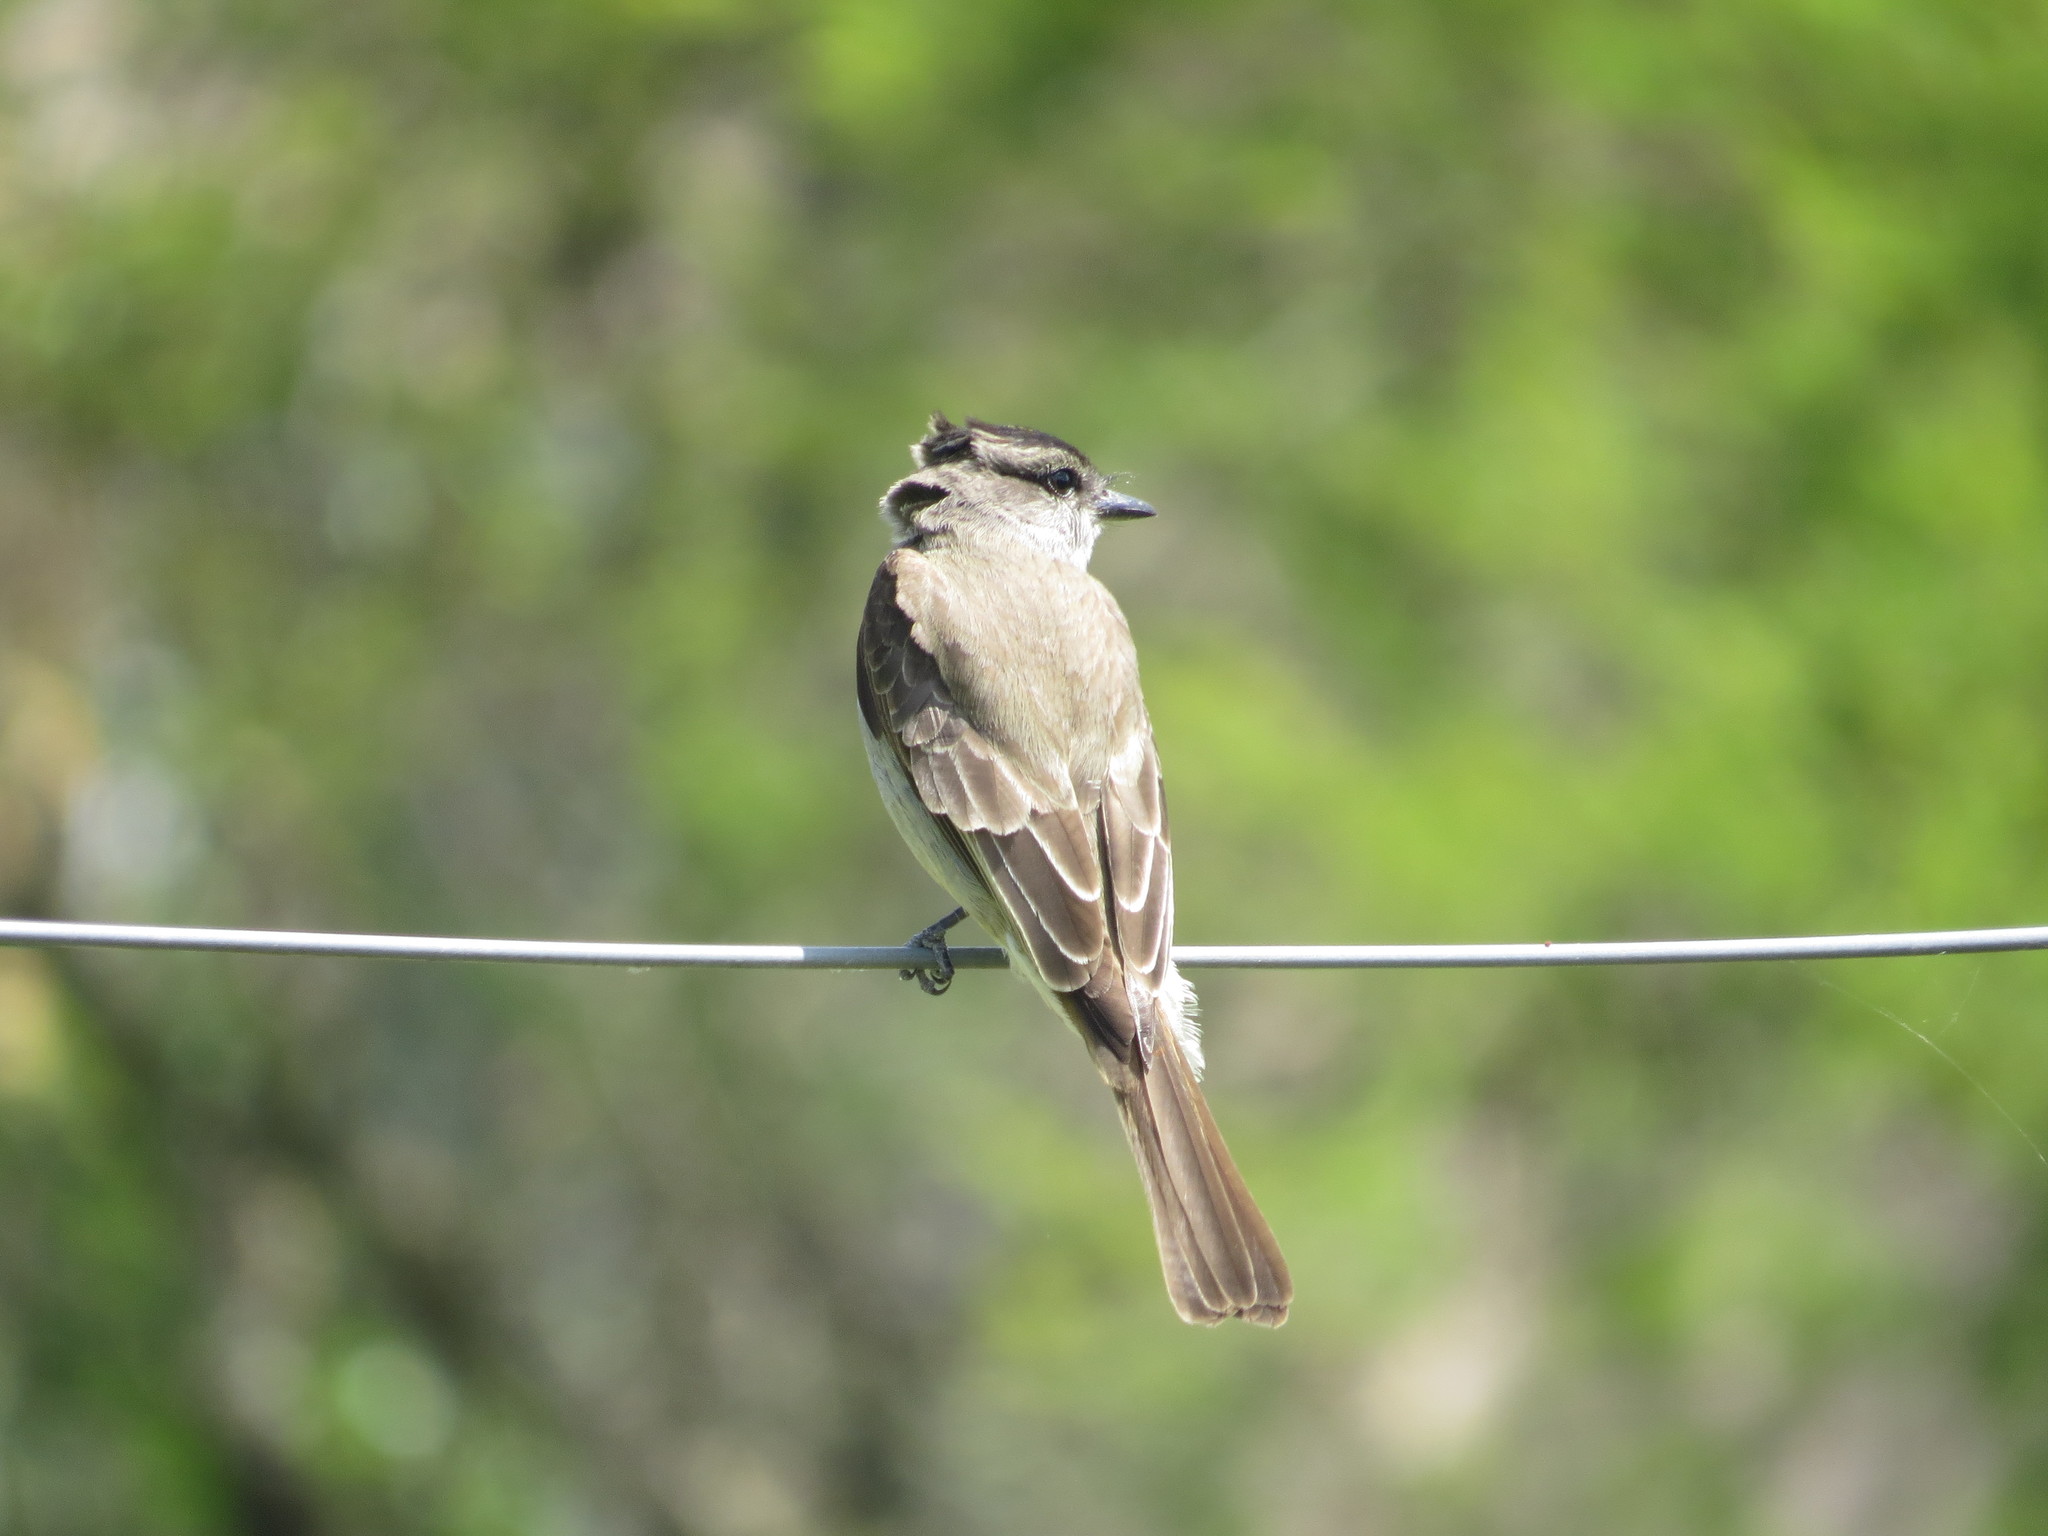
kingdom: Animalia
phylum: Chordata
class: Aves
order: Passeriformes
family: Tyrannidae
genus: Empidonomus
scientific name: Empidonomus aurantioatrocristatus
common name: Crowned slaty flycatcher
